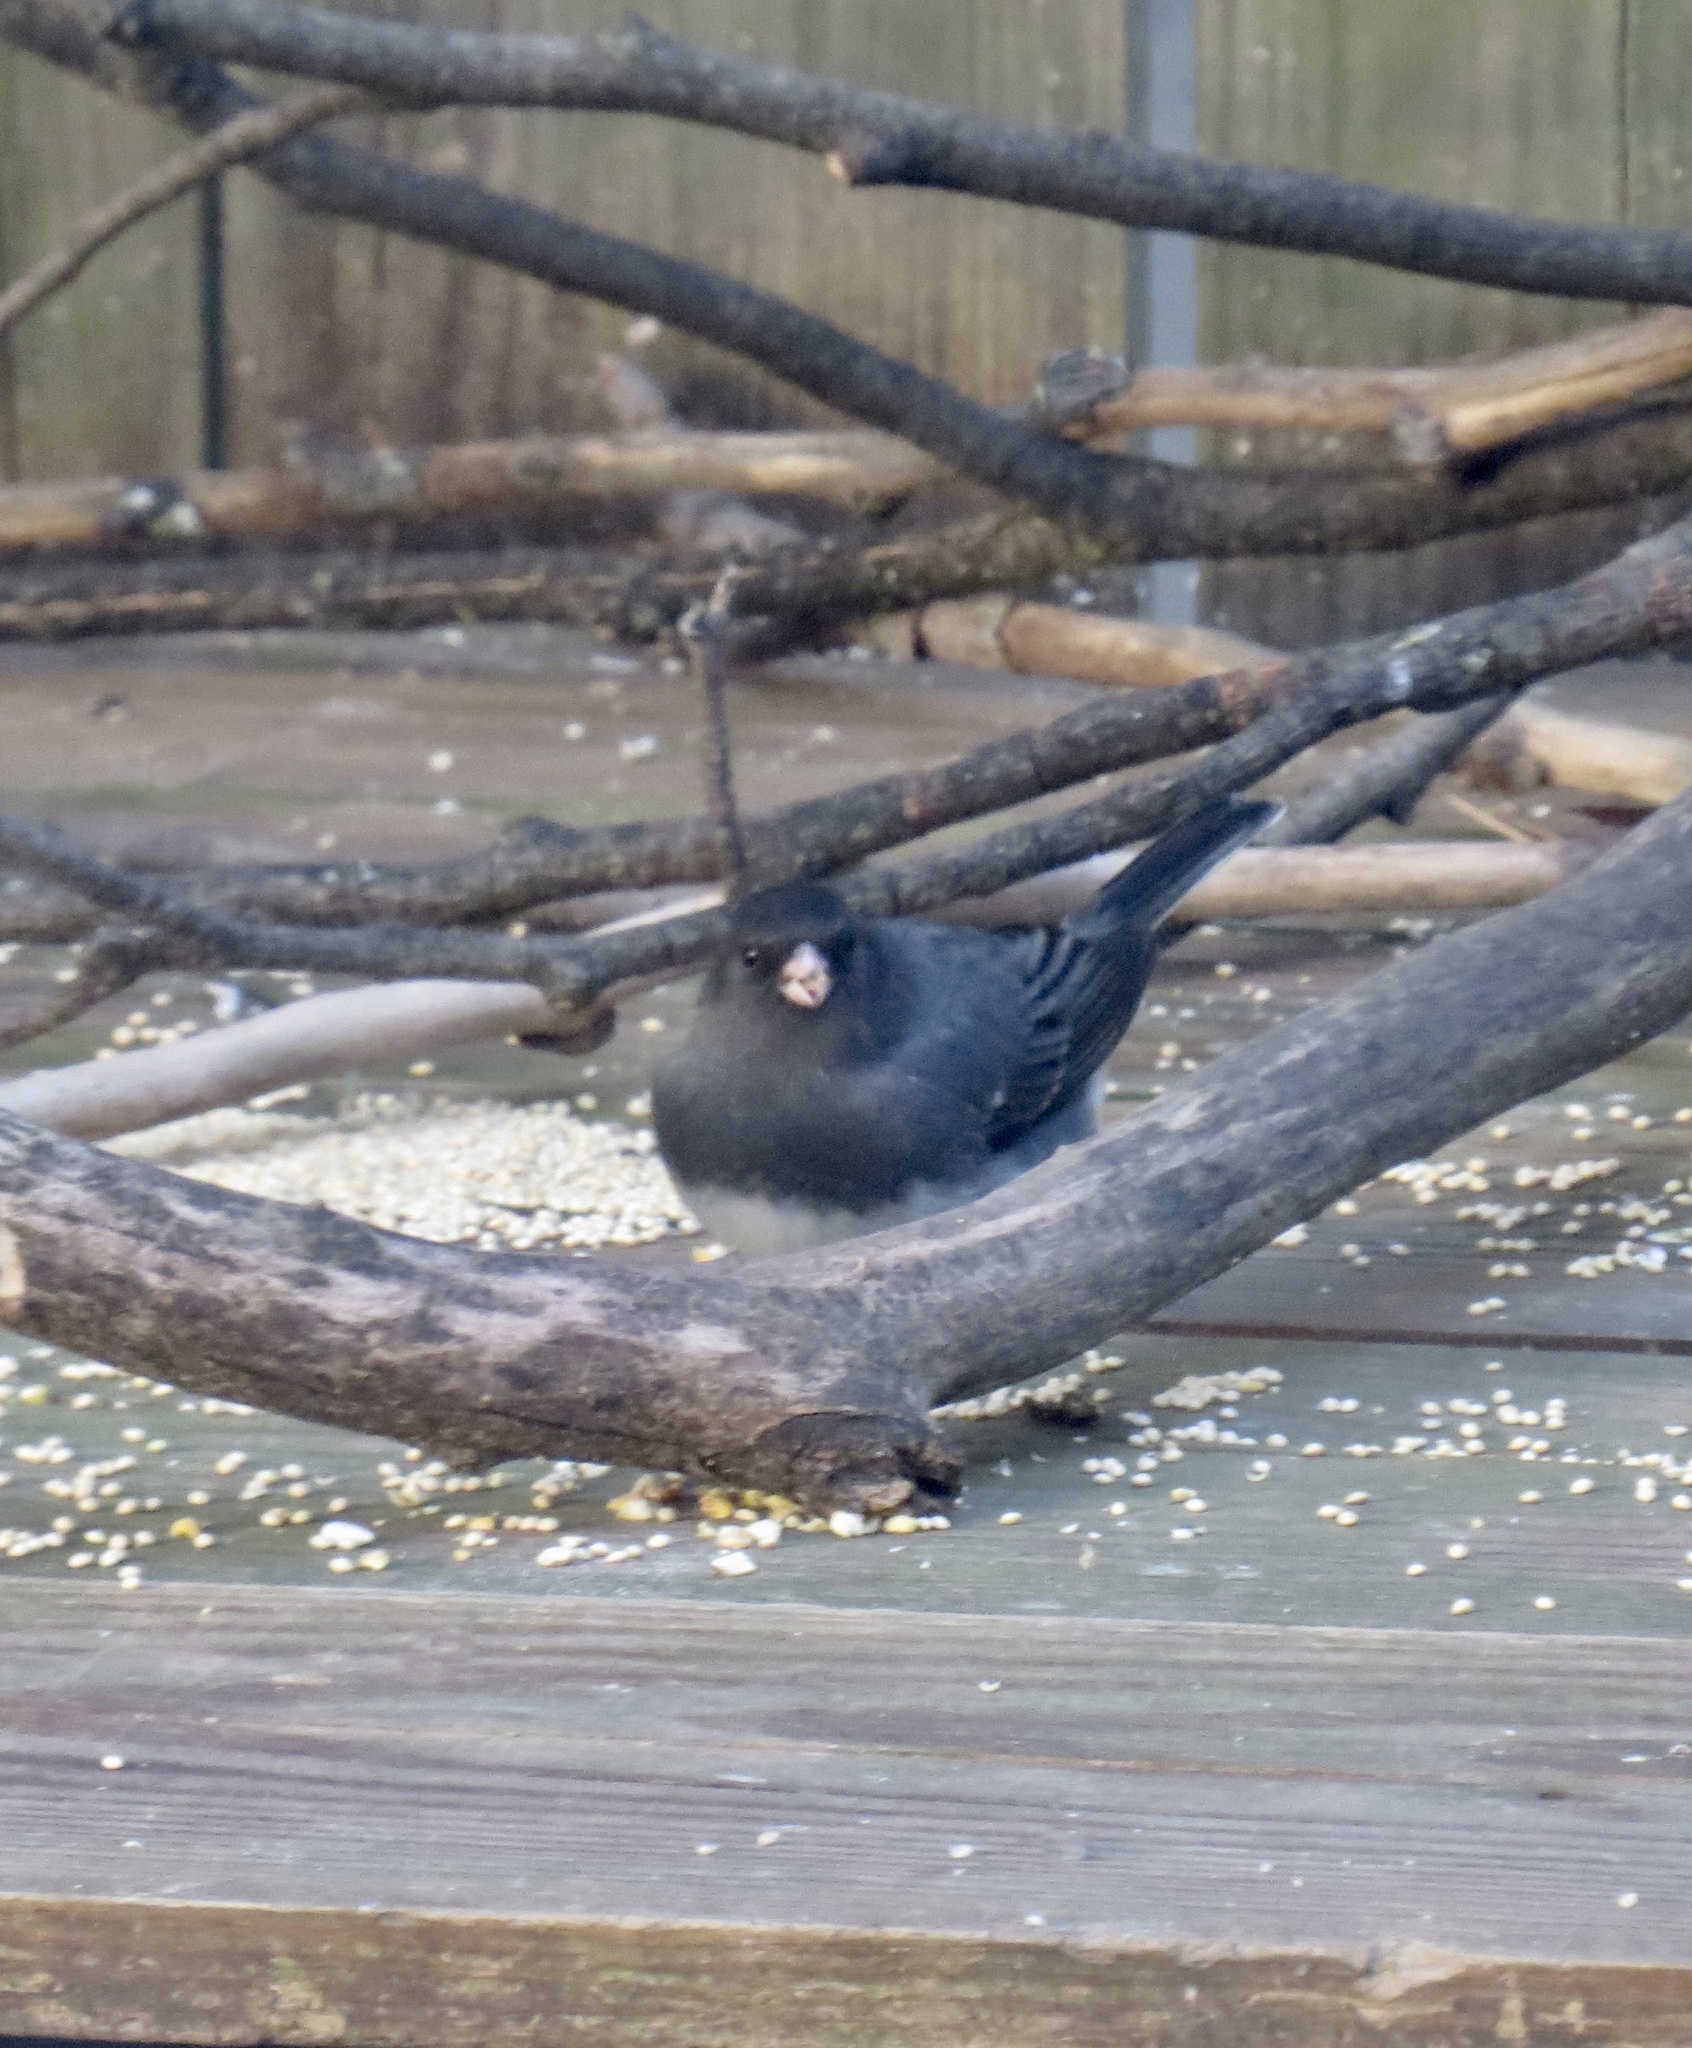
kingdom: Animalia
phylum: Chordata
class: Aves
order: Passeriformes
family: Passerellidae
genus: Junco
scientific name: Junco hyemalis
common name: Dark-eyed junco
